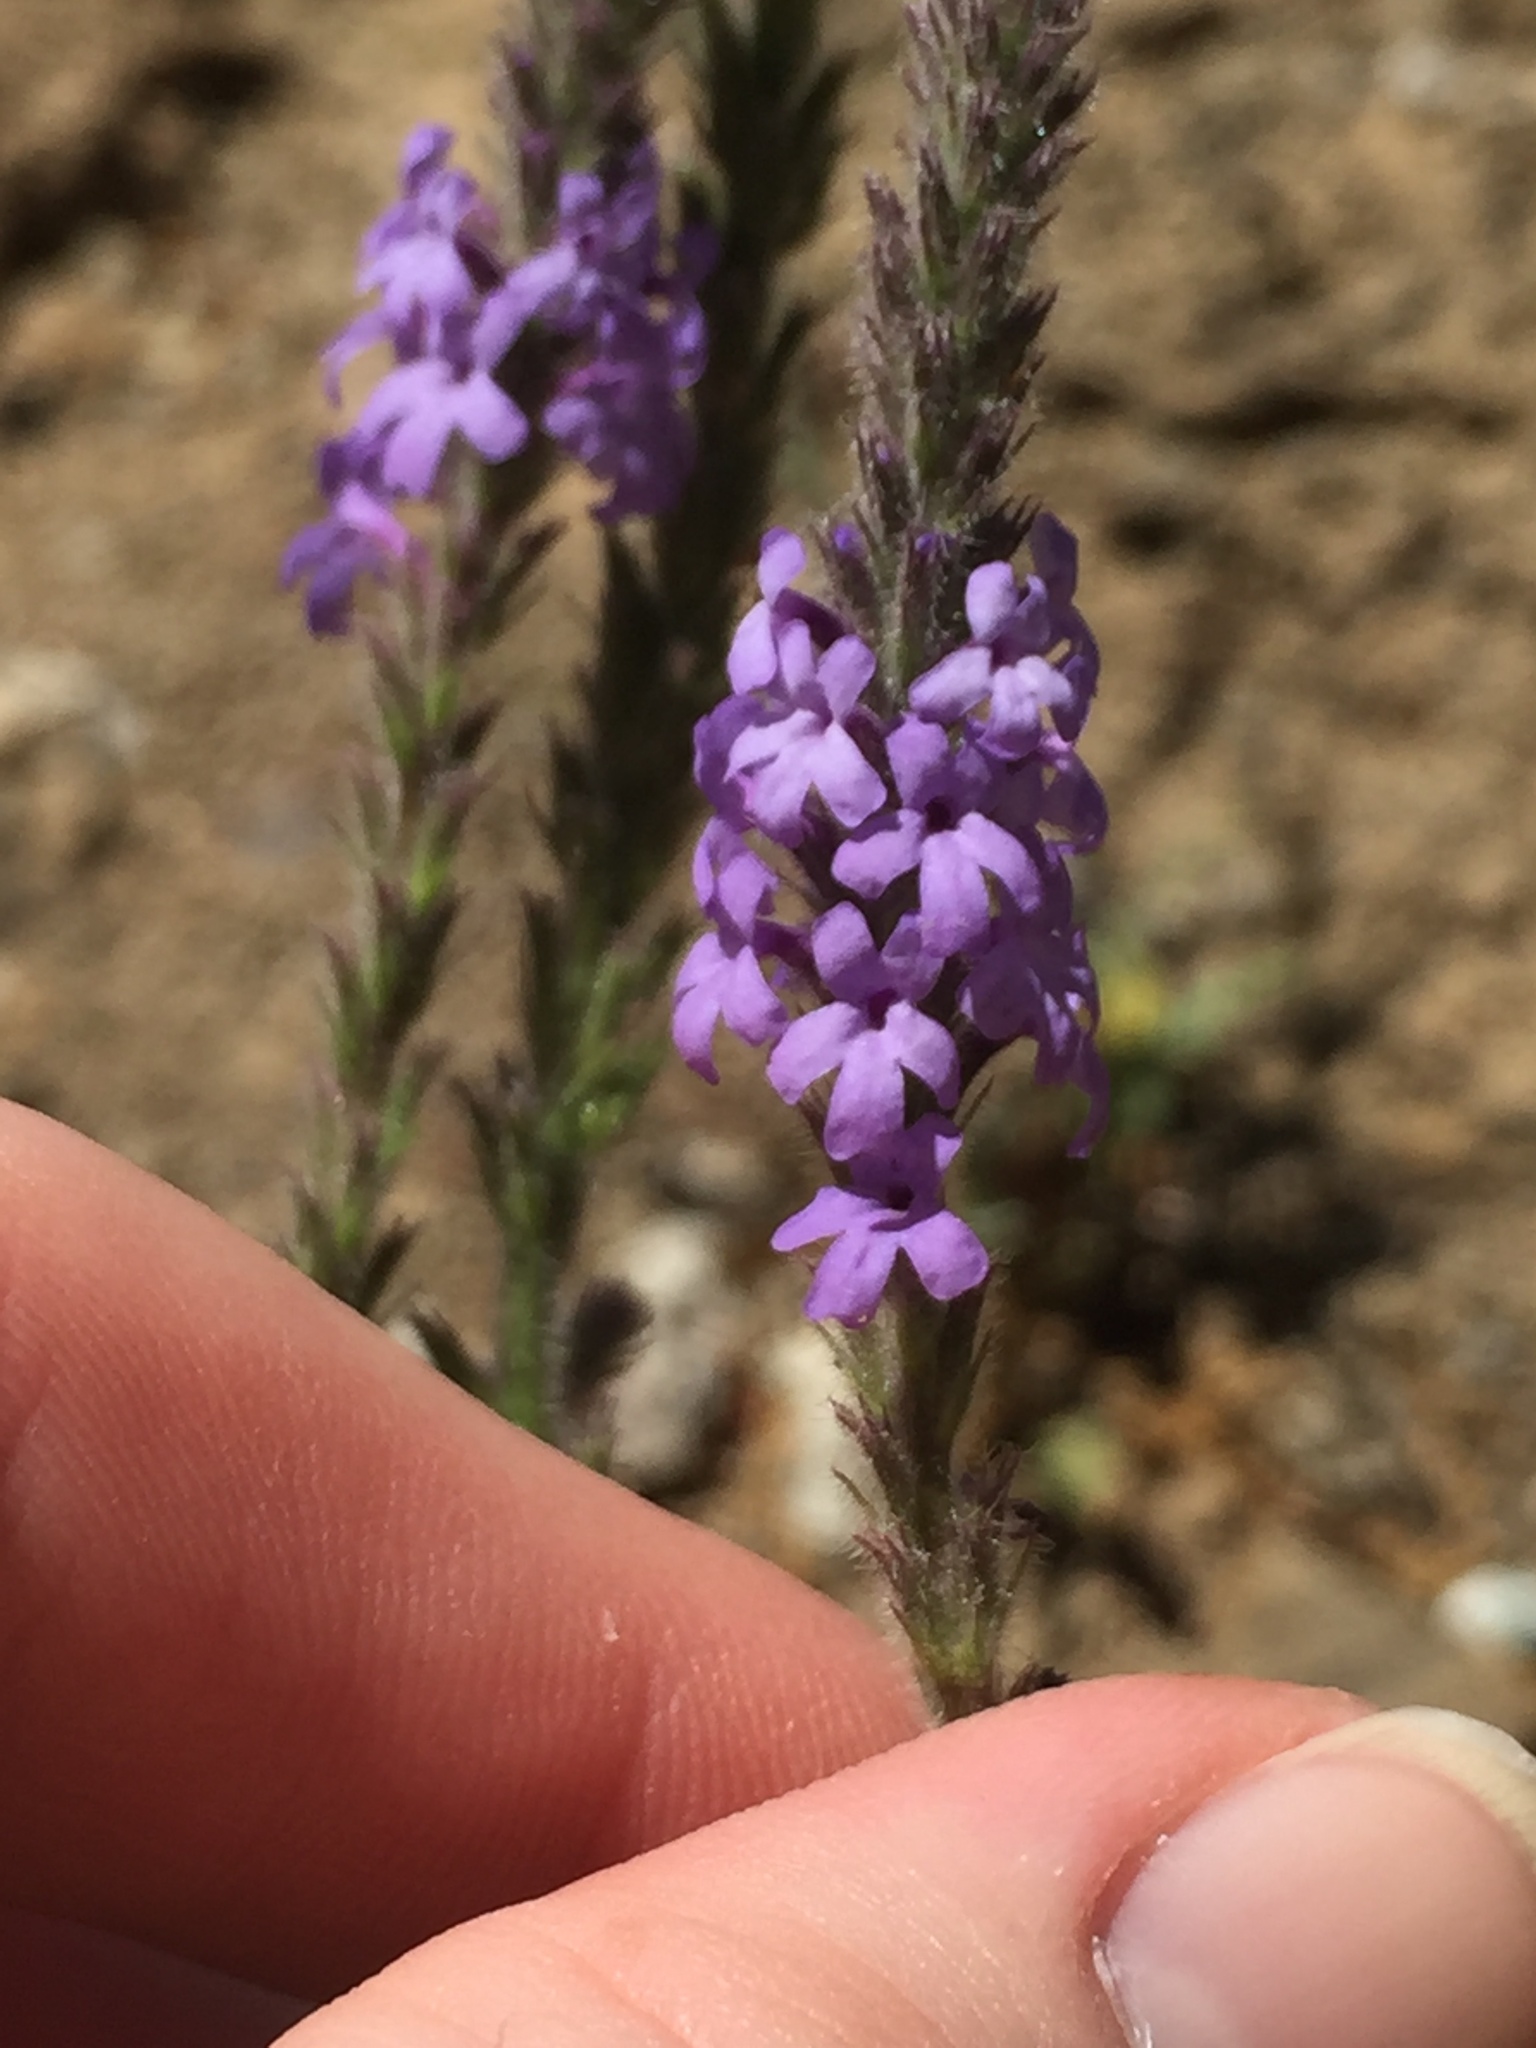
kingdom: Plantae
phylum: Tracheophyta
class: Magnoliopsida
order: Lamiales
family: Verbenaceae
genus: Verbena
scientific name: Verbena lasiostachys
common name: Vervain
